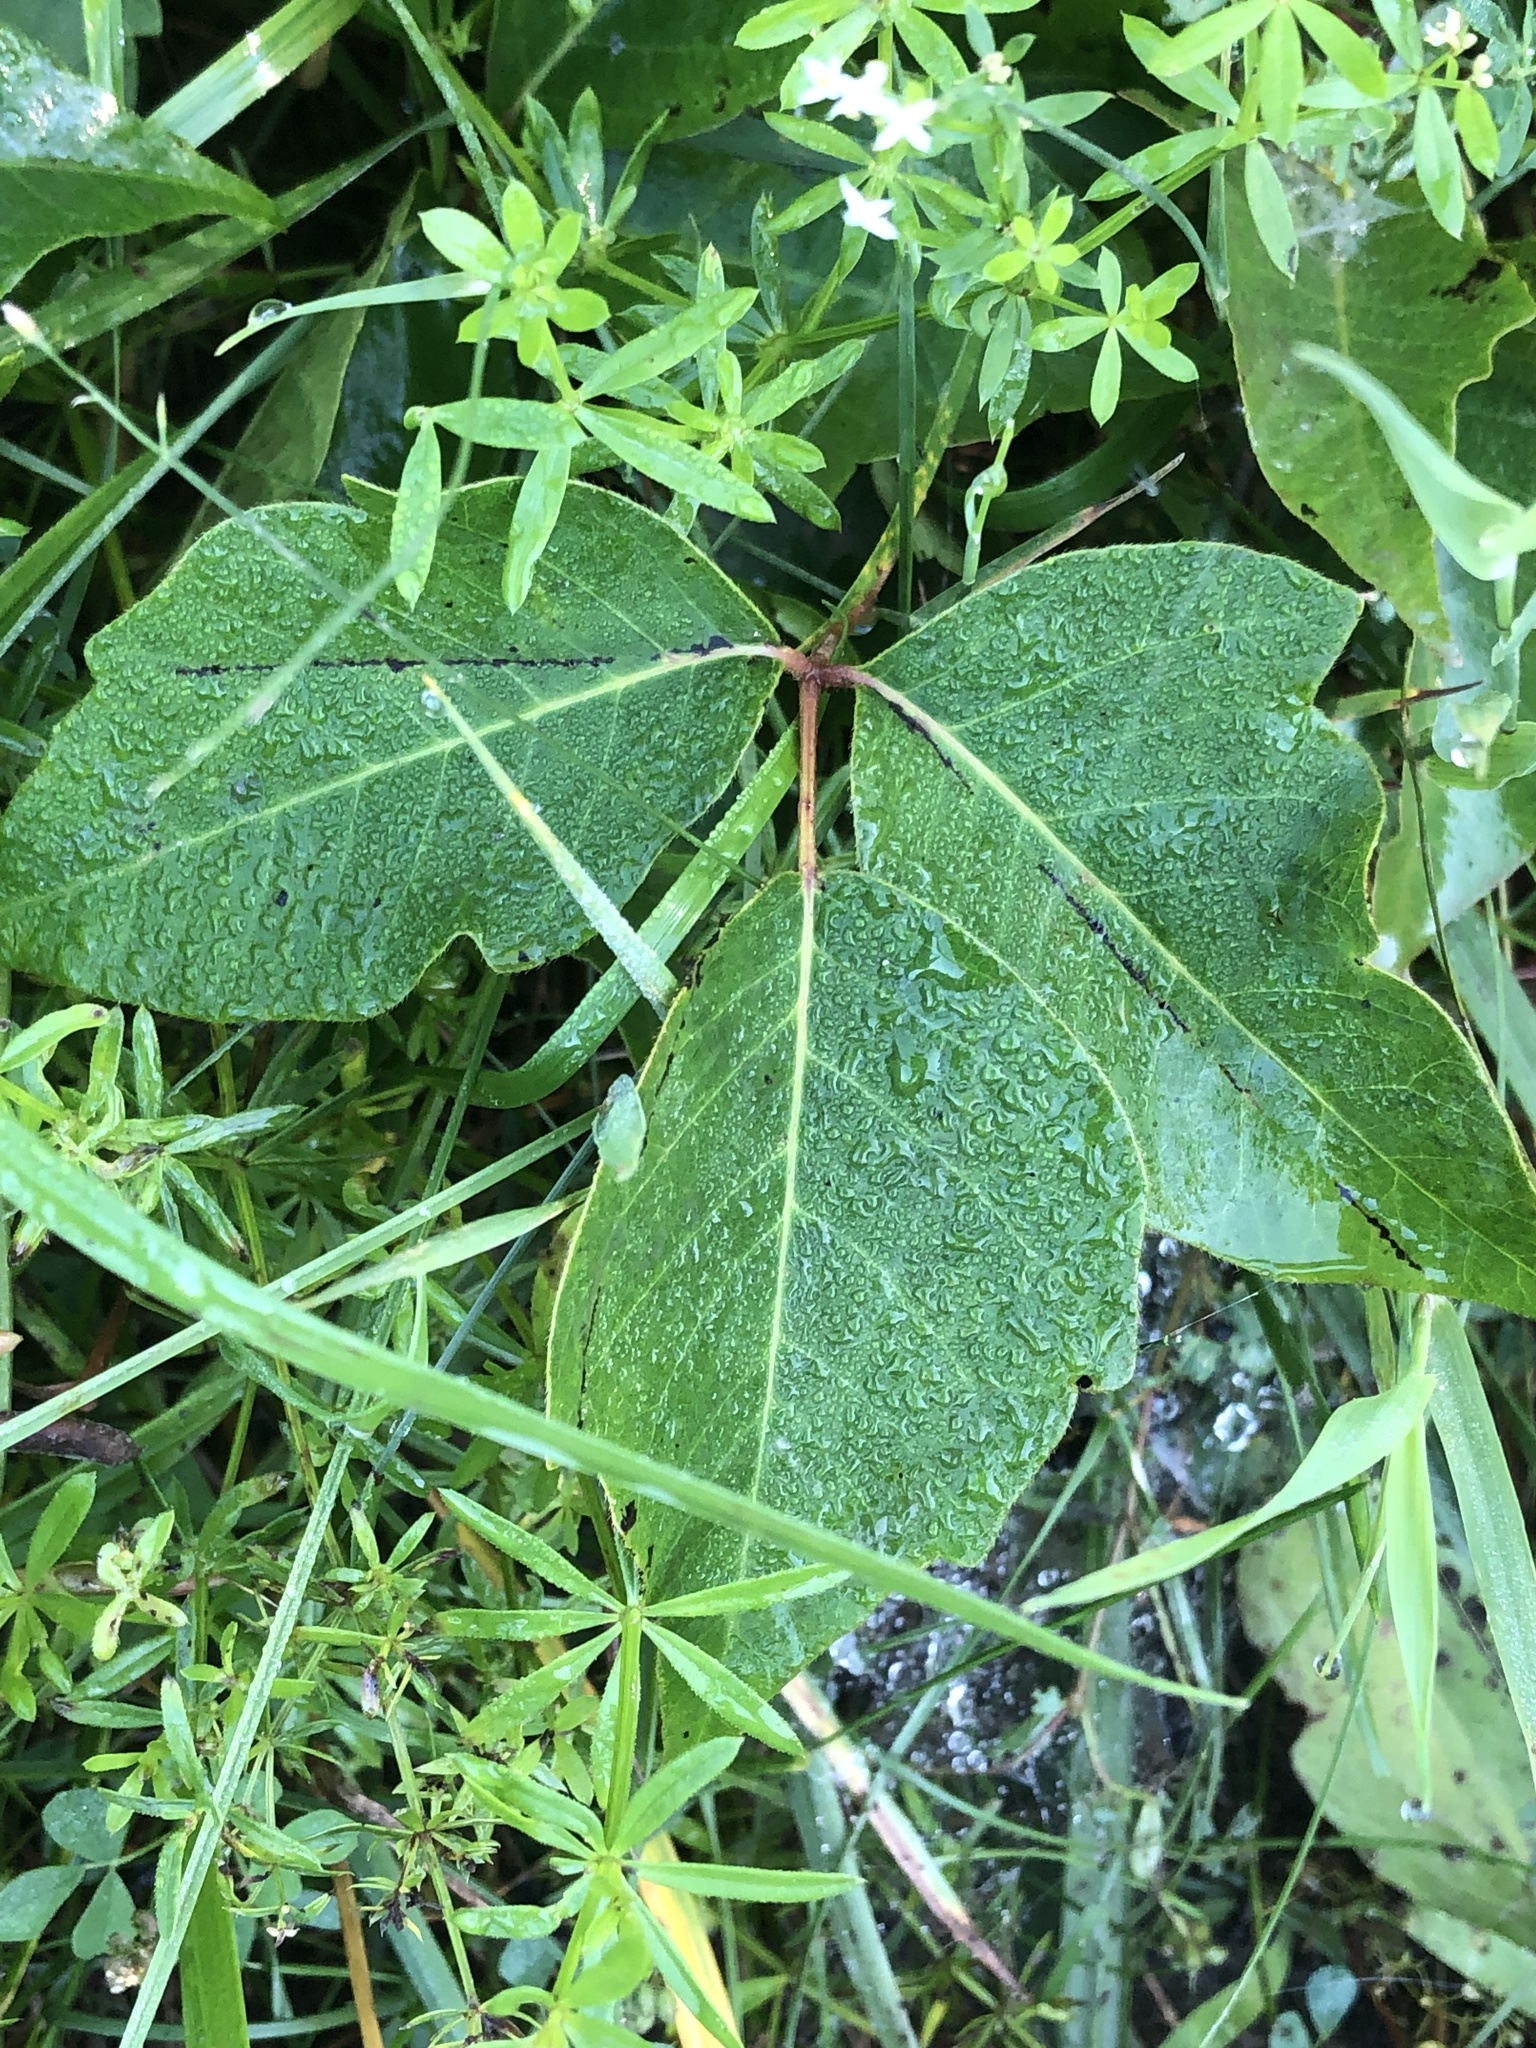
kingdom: Plantae
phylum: Tracheophyta
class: Magnoliopsida
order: Sapindales
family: Anacardiaceae
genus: Toxicodendron
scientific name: Toxicodendron rydbergii
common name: Rydberg's poison-ivy
